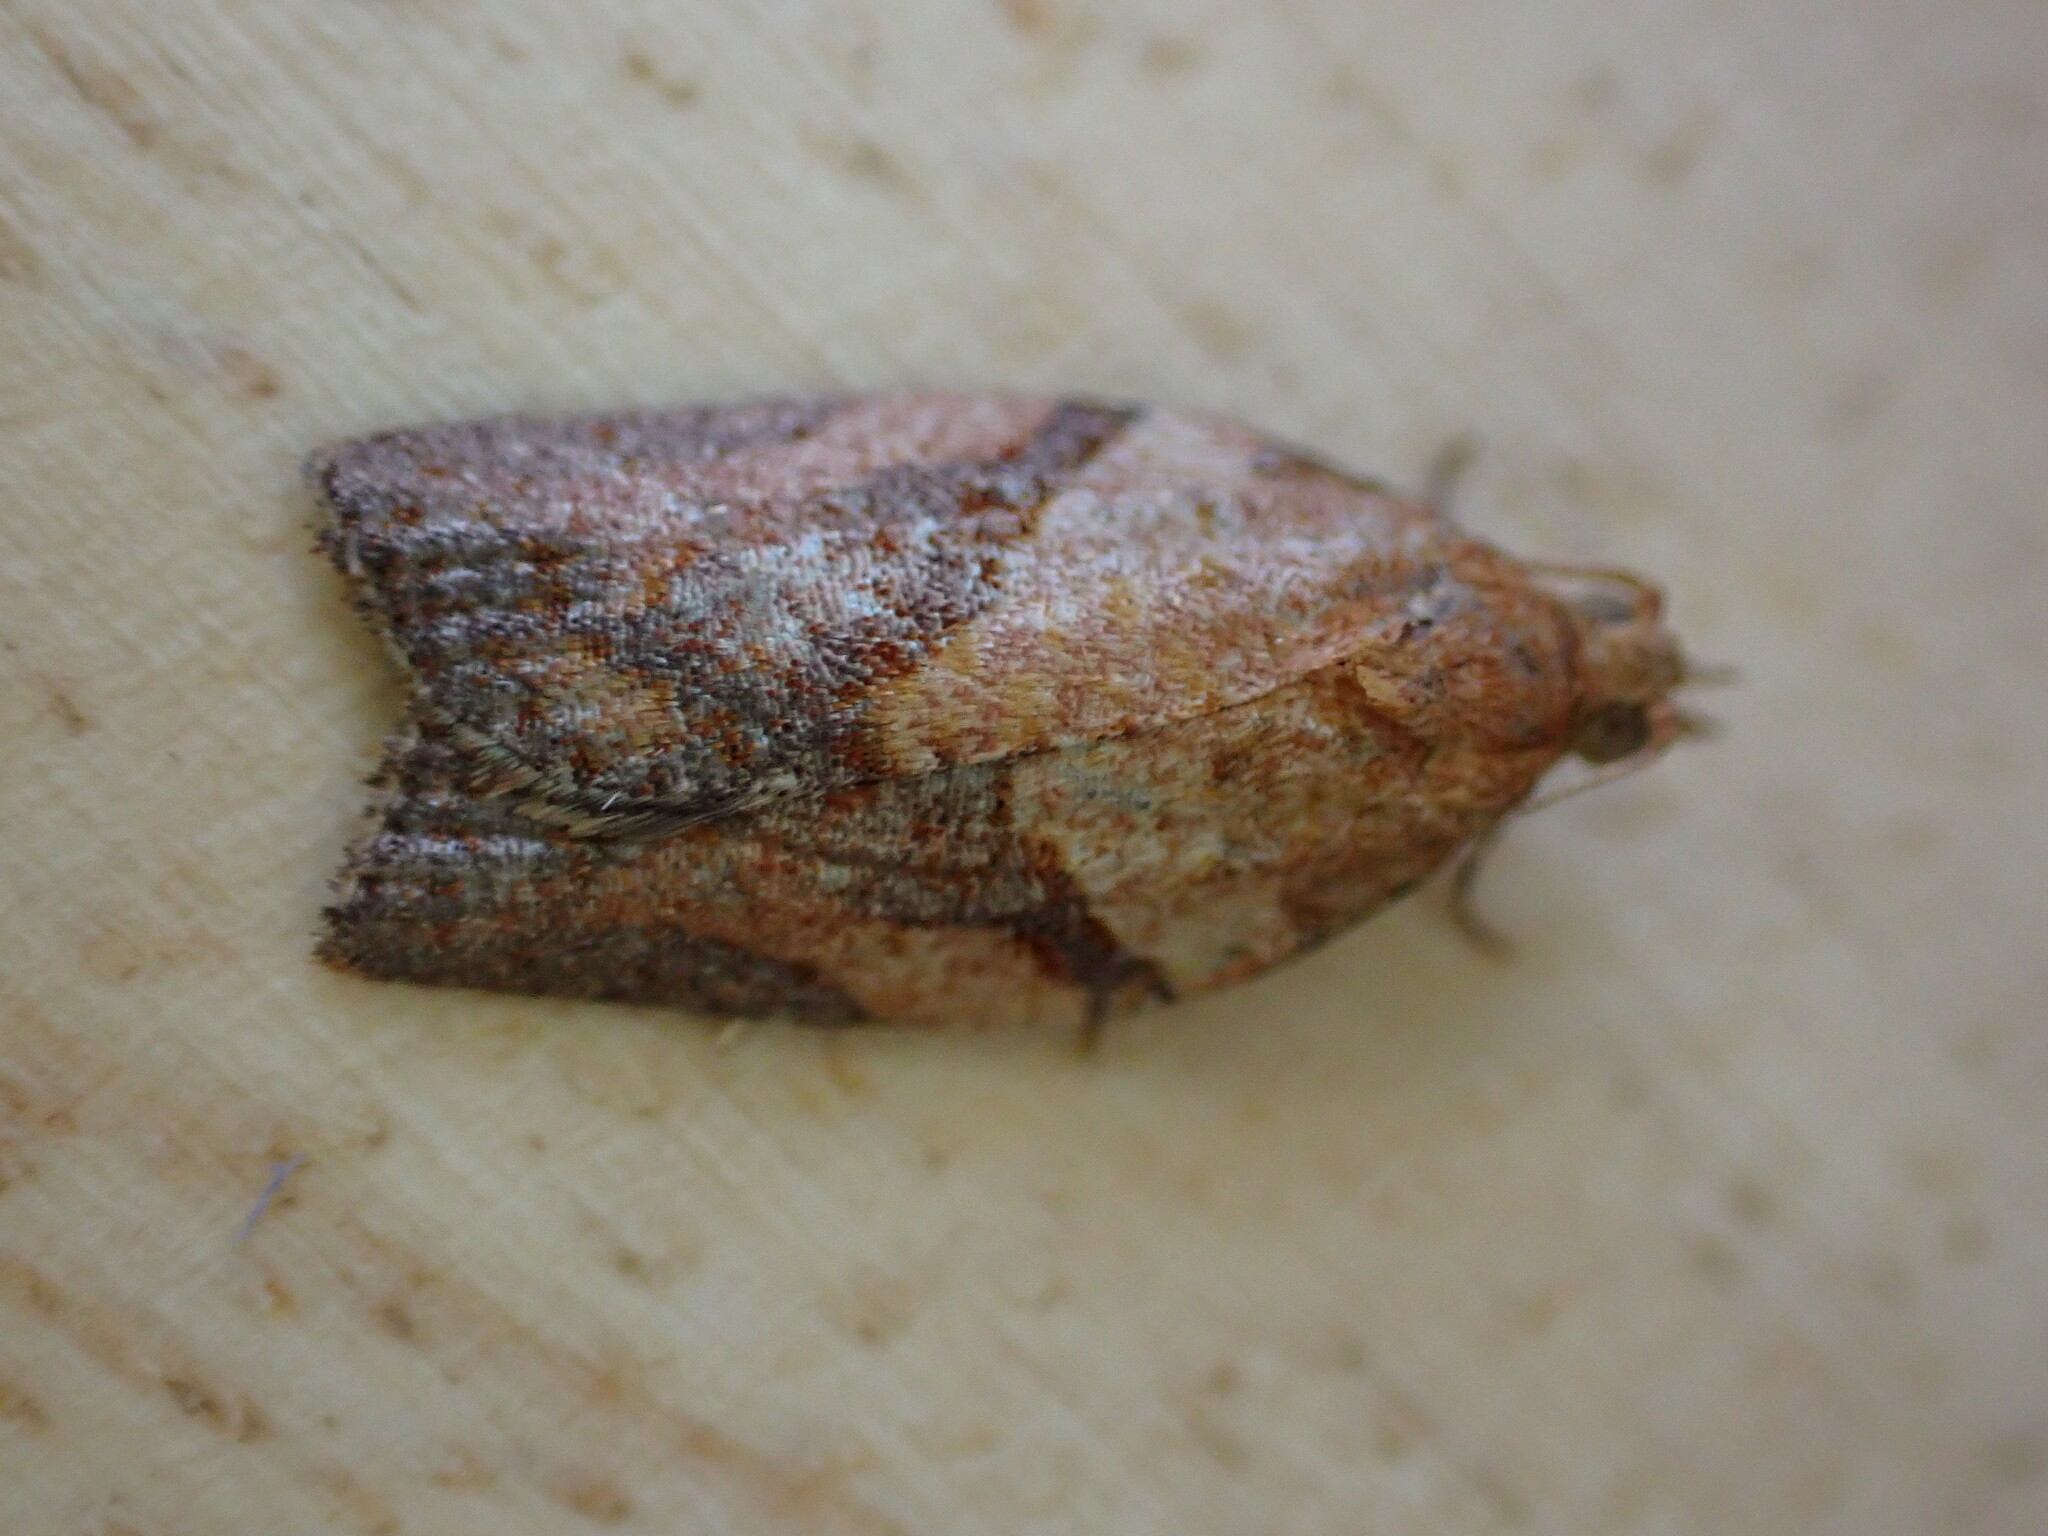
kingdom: Animalia
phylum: Arthropoda
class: Insecta
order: Lepidoptera
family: Tortricidae
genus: Epiphyas
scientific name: Epiphyas postvittana
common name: Light brown apple moth
